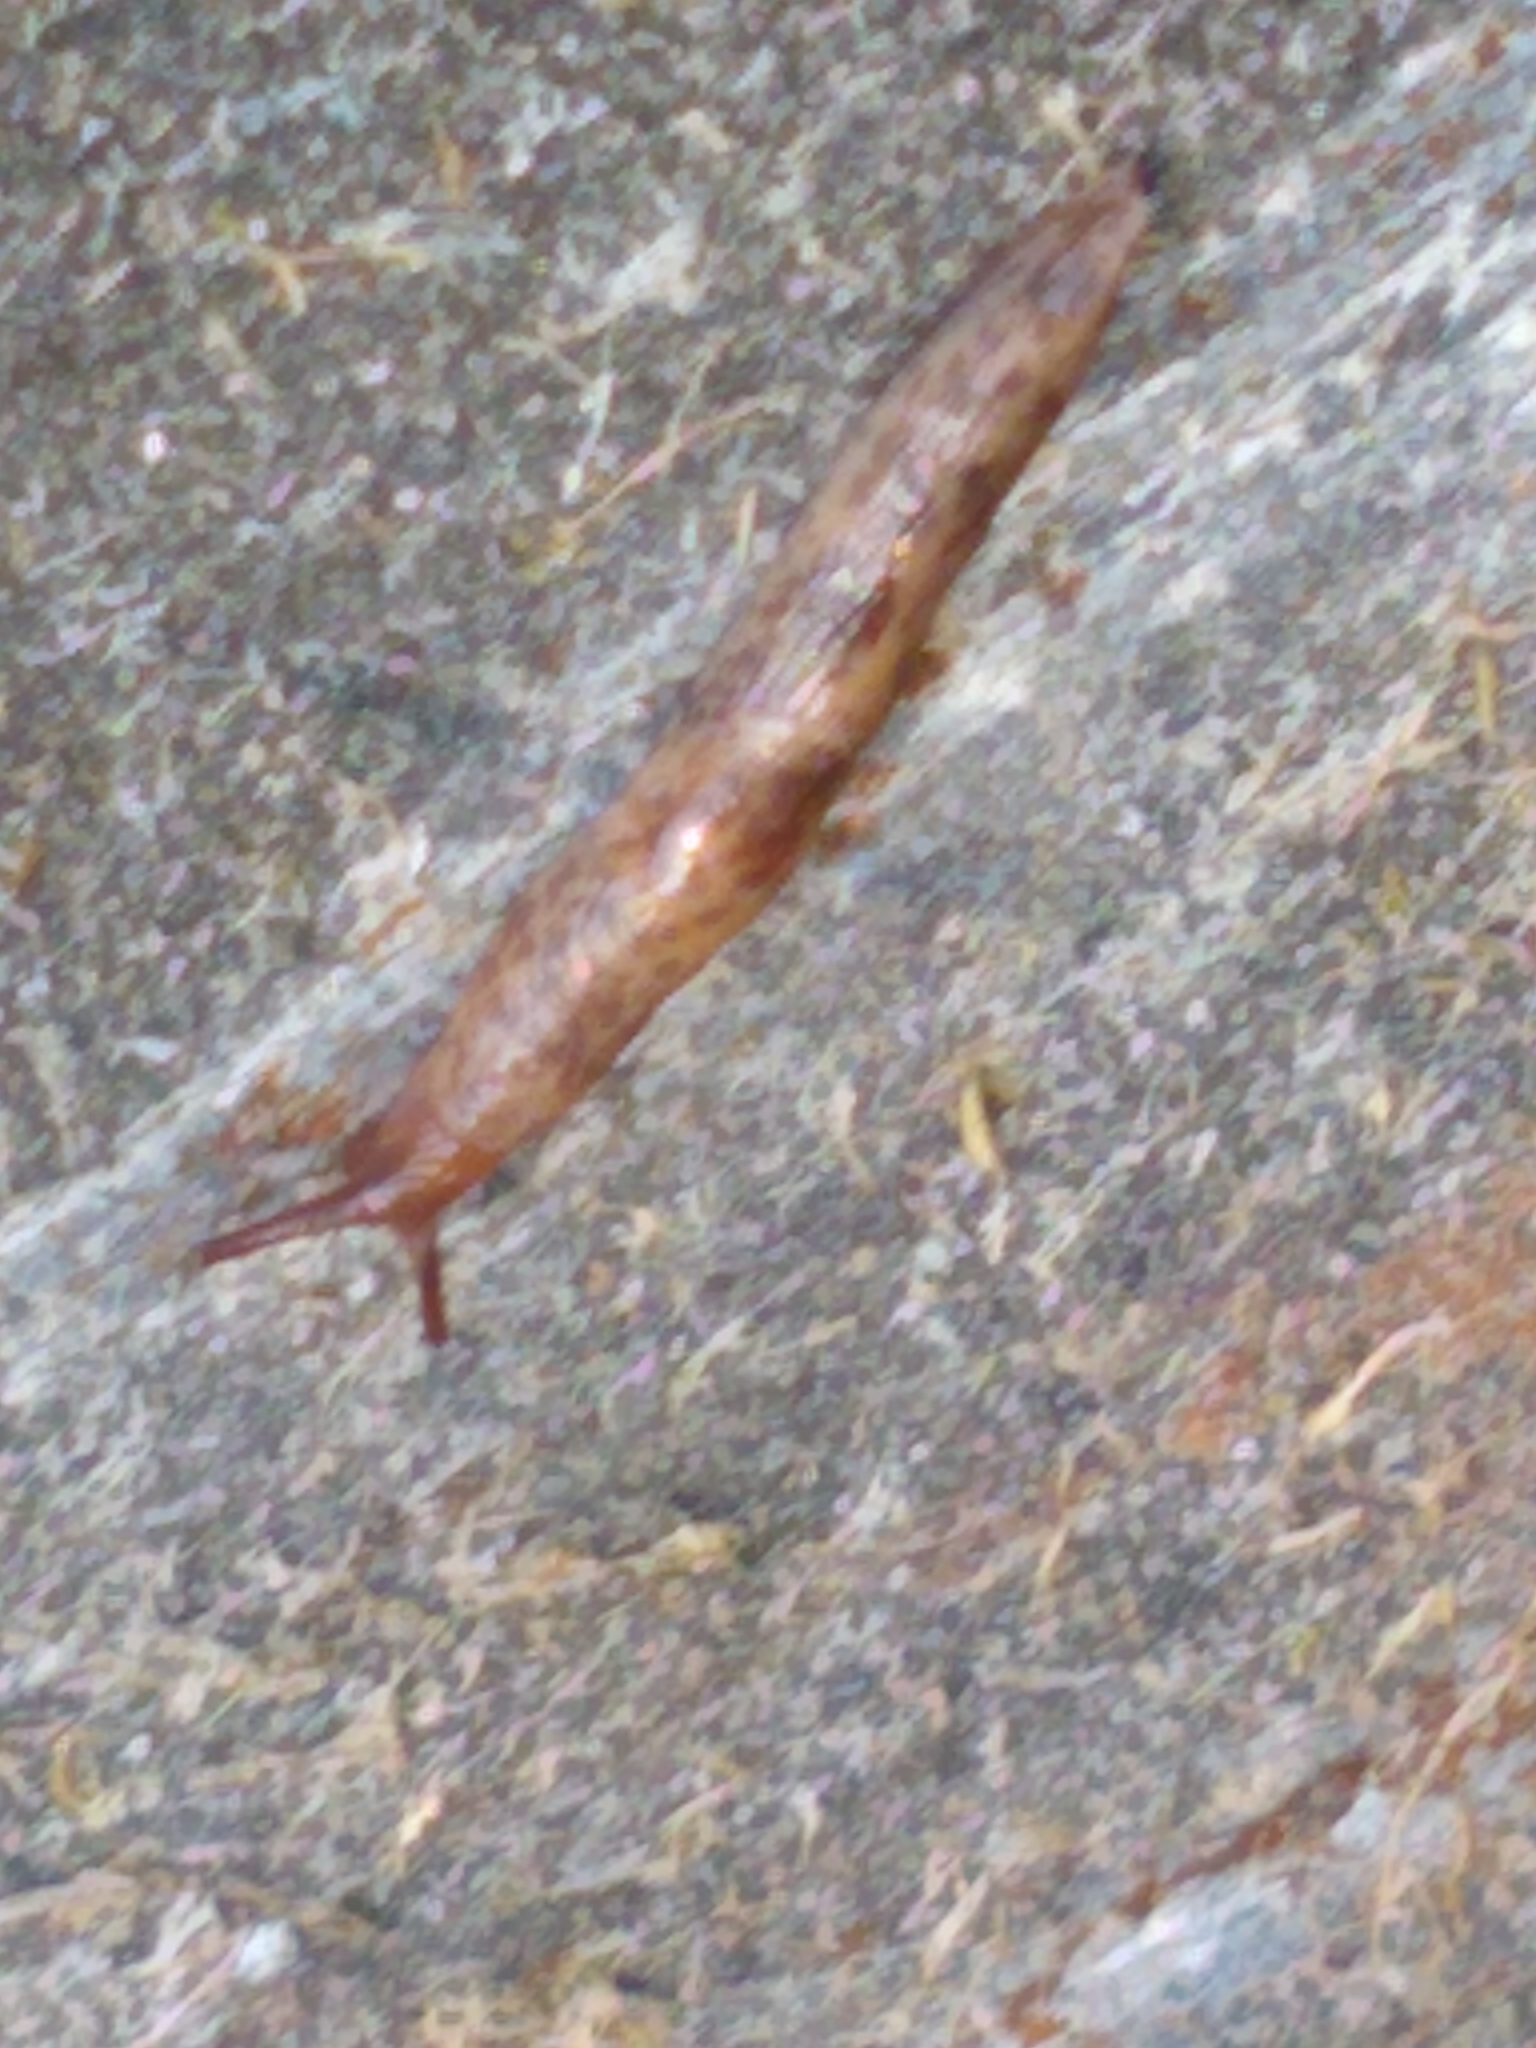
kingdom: Animalia
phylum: Mollusca
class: Gastropoda
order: Stylommatophora
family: Agriolimacidae
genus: Deroceras
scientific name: Deroceras reticulatum
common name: Gray field slug
